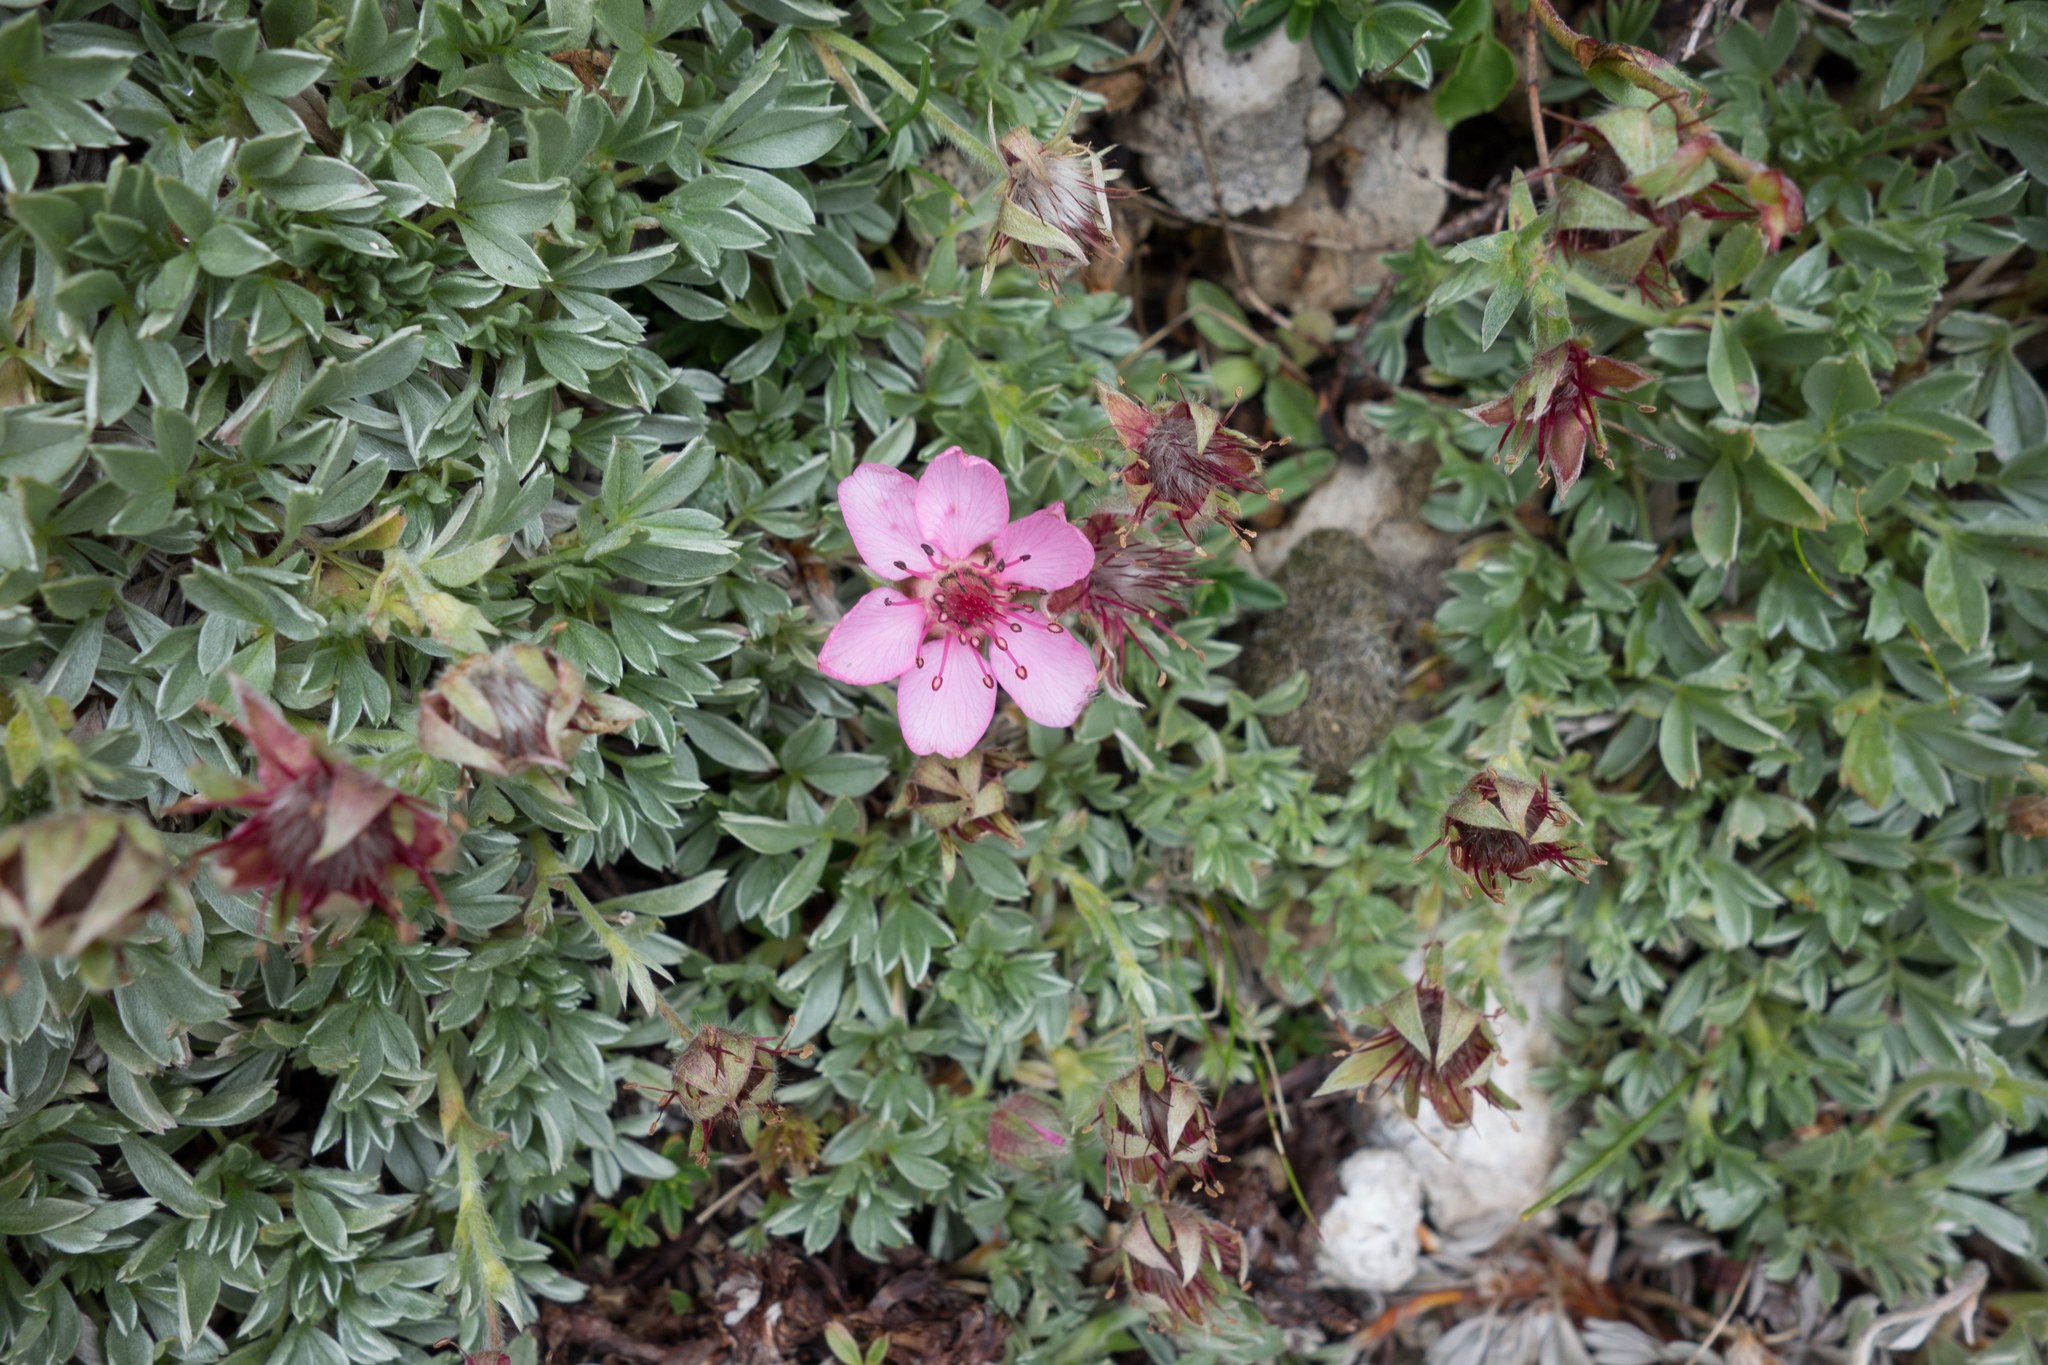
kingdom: Plantae
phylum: Tracheophyta
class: Magnoliopsida
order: Rosales
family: Rosaceae
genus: Potentilla
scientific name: Potentilla nitida
